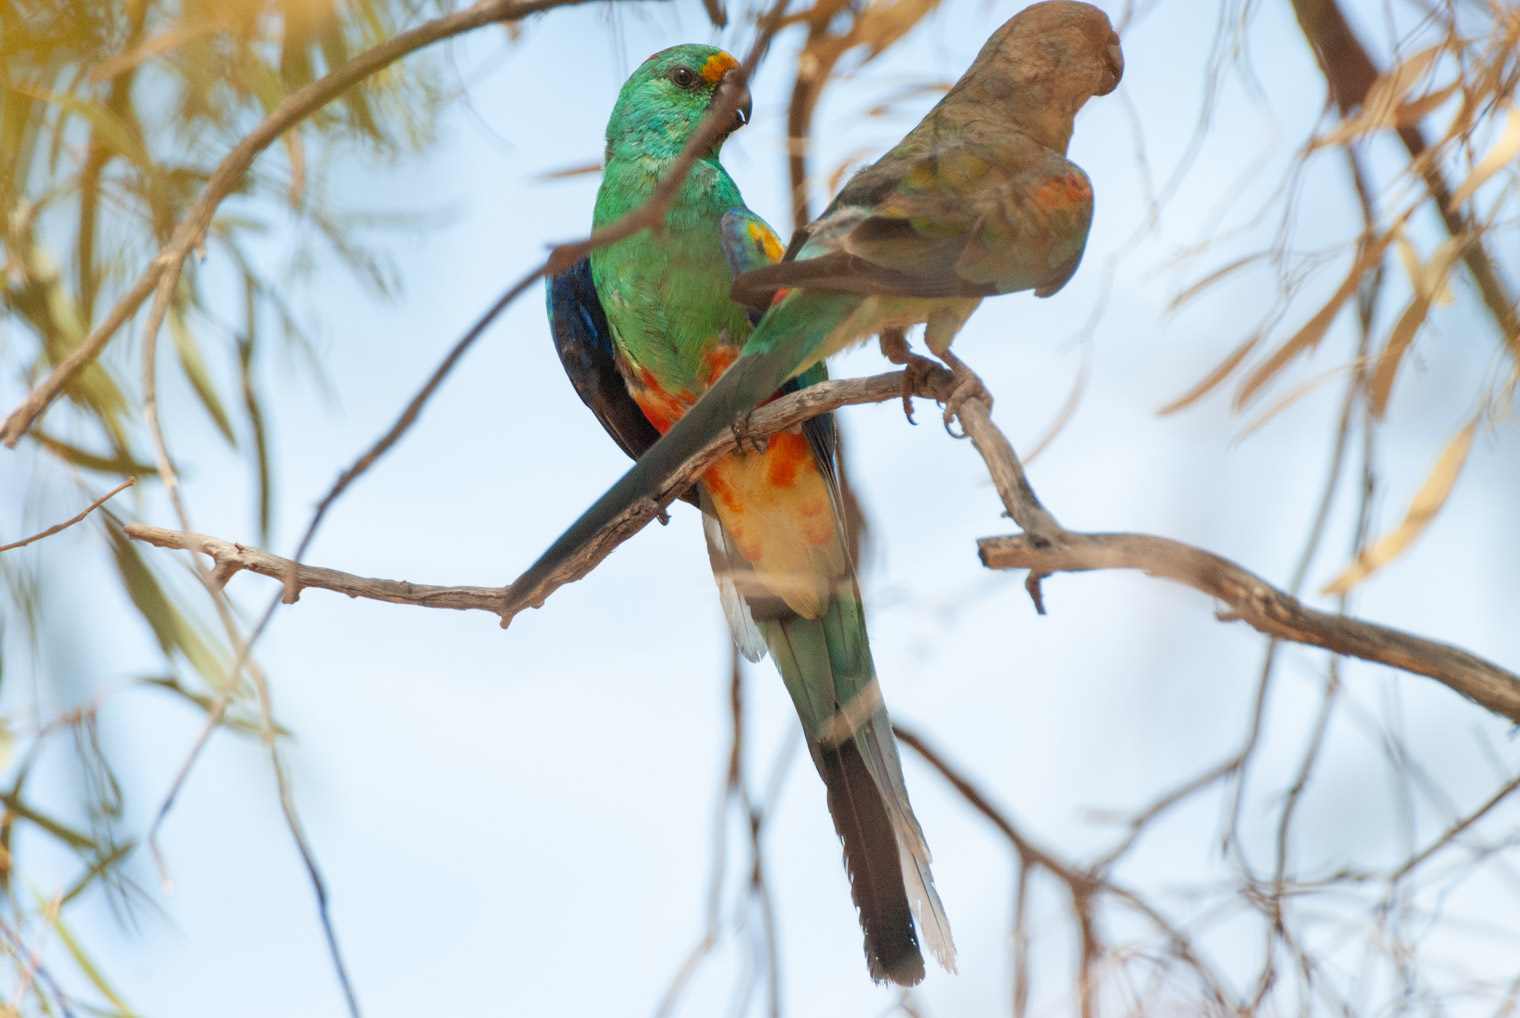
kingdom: Animalia
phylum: Chordata
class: Aves
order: Psittaciformes
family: Psittaculidae
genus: Psephotellus
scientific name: Psephotellus varius
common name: Mulga parrot
